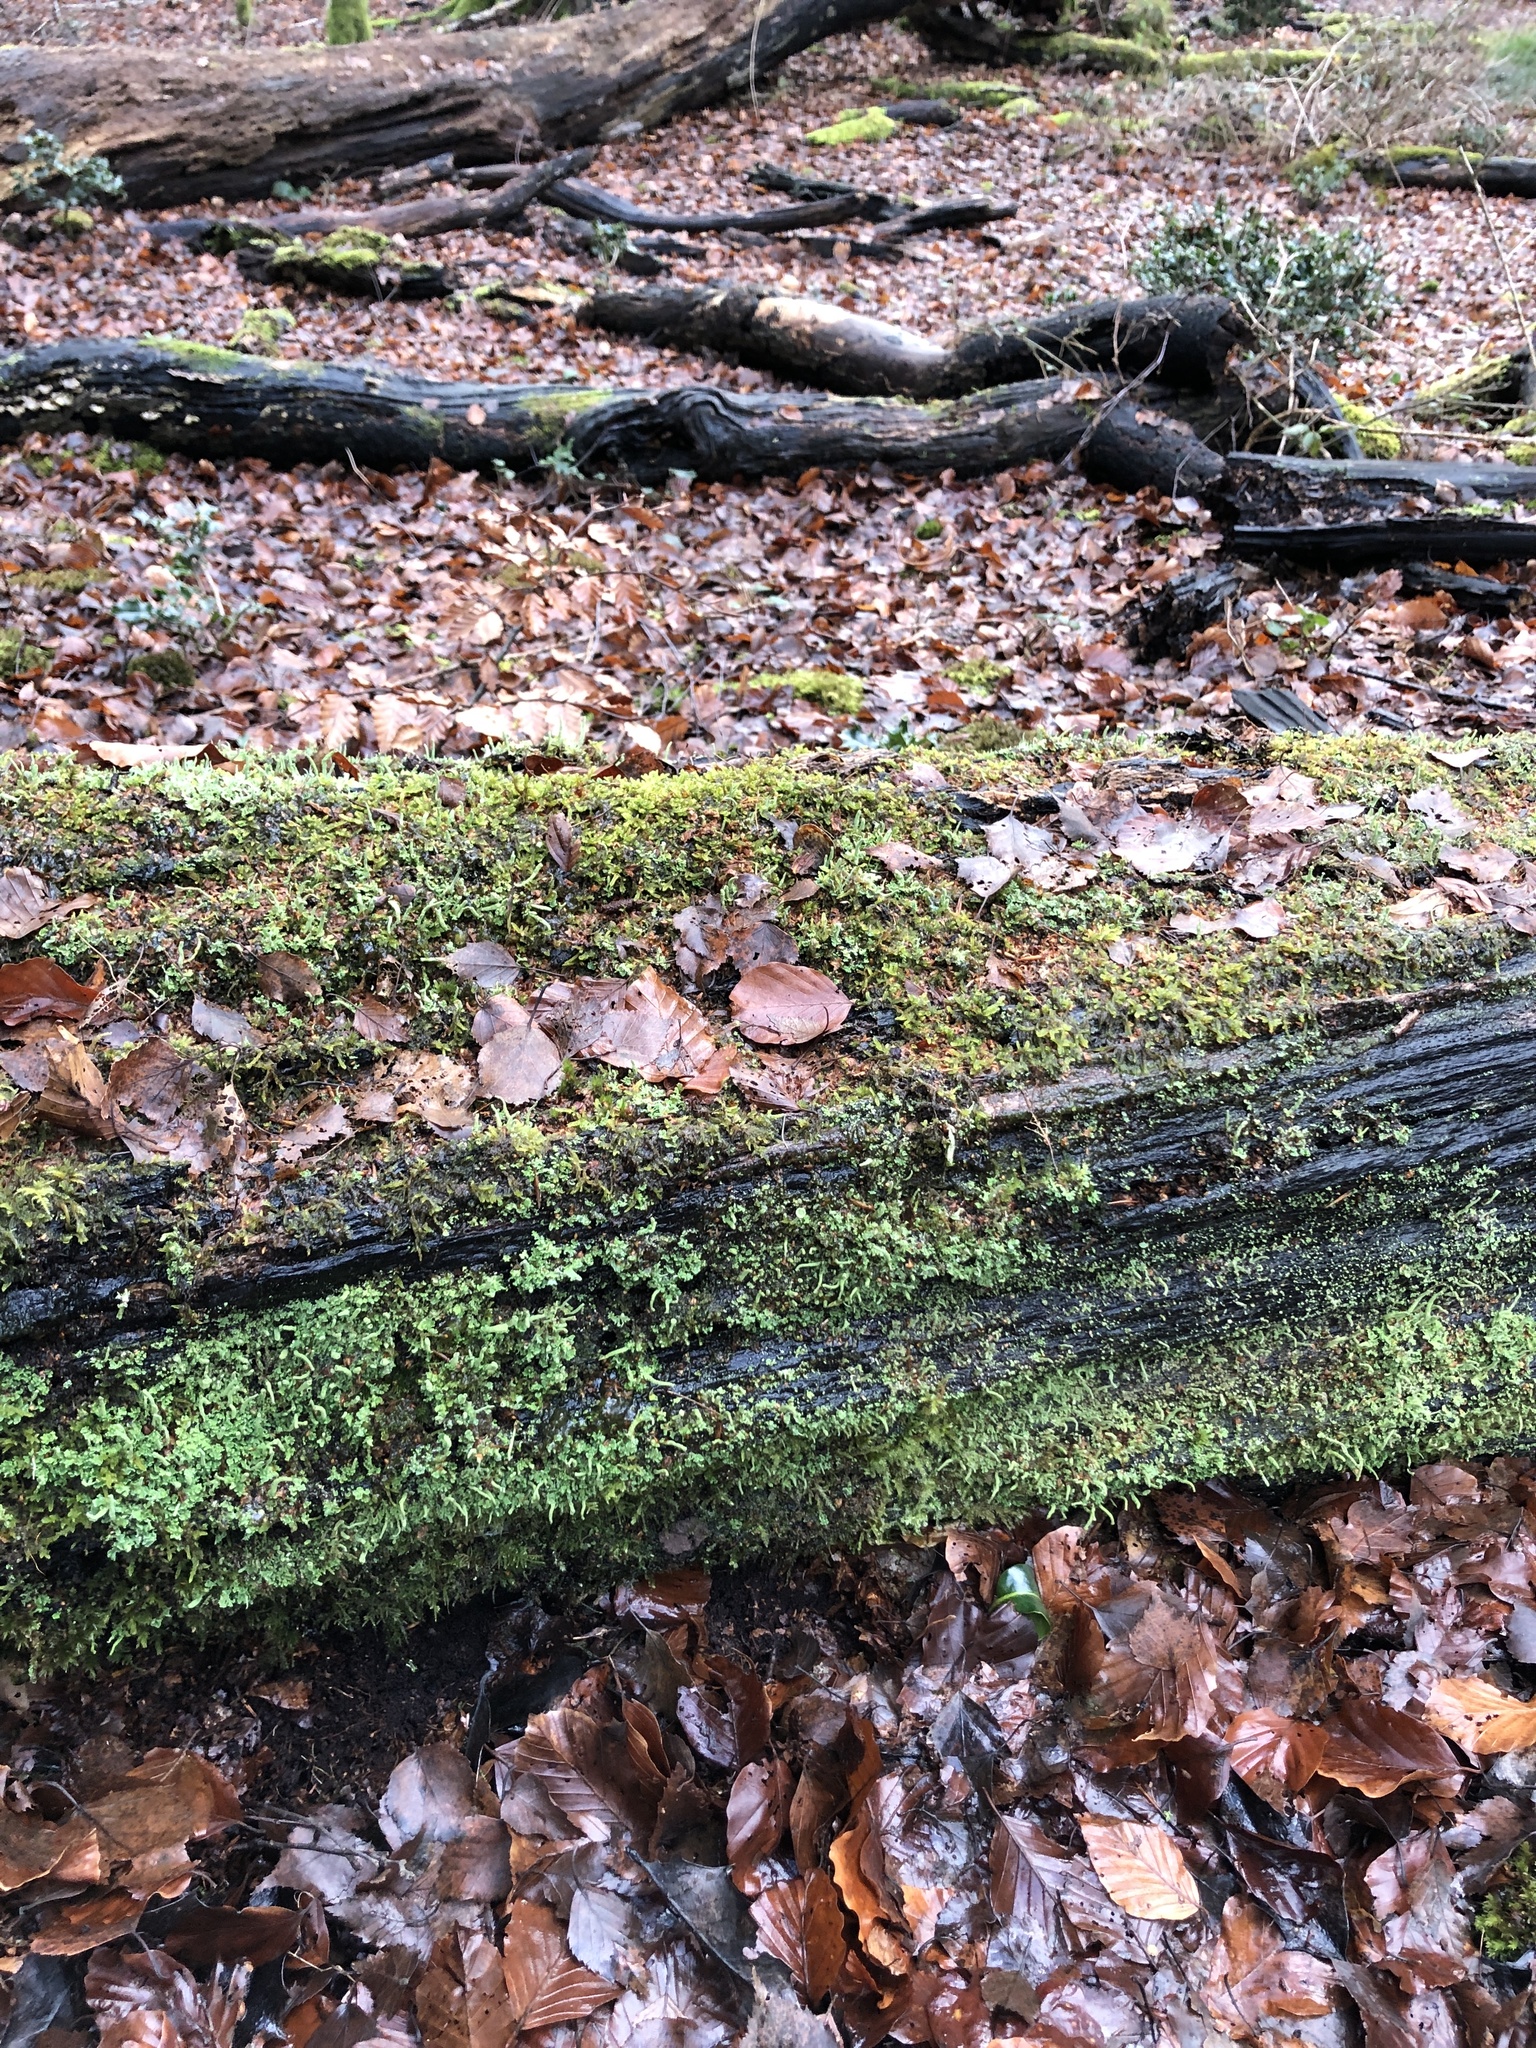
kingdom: Plantae
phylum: Bryophyta
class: Bryopsida
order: Hypnales
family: Hypnaceae
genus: Hypnum
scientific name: Hypnum cupressiforme
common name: Cypress-leaved plait-moss
